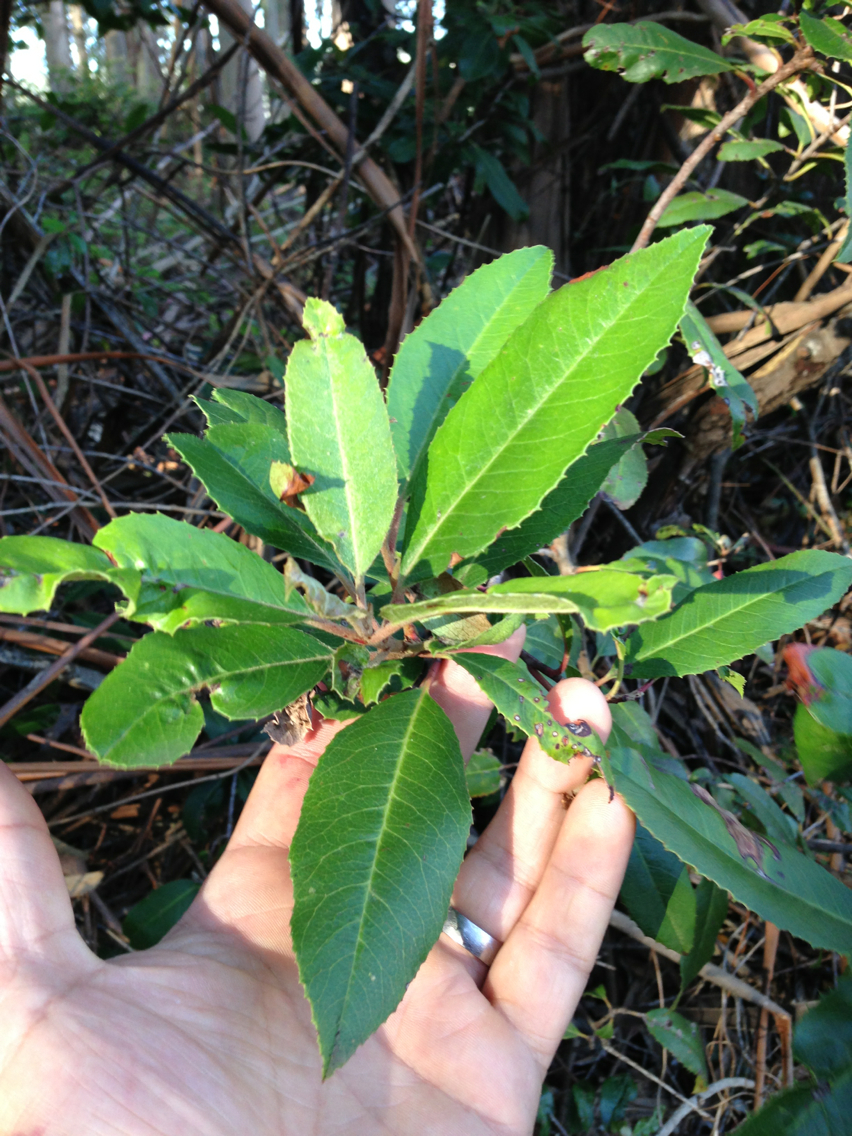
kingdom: Plantae
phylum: Tracheophyta
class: Magnoliopsida
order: Rosales
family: Rosaceae
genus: Heteromeles
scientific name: Heteromeles arbutifolia
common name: California-holly
